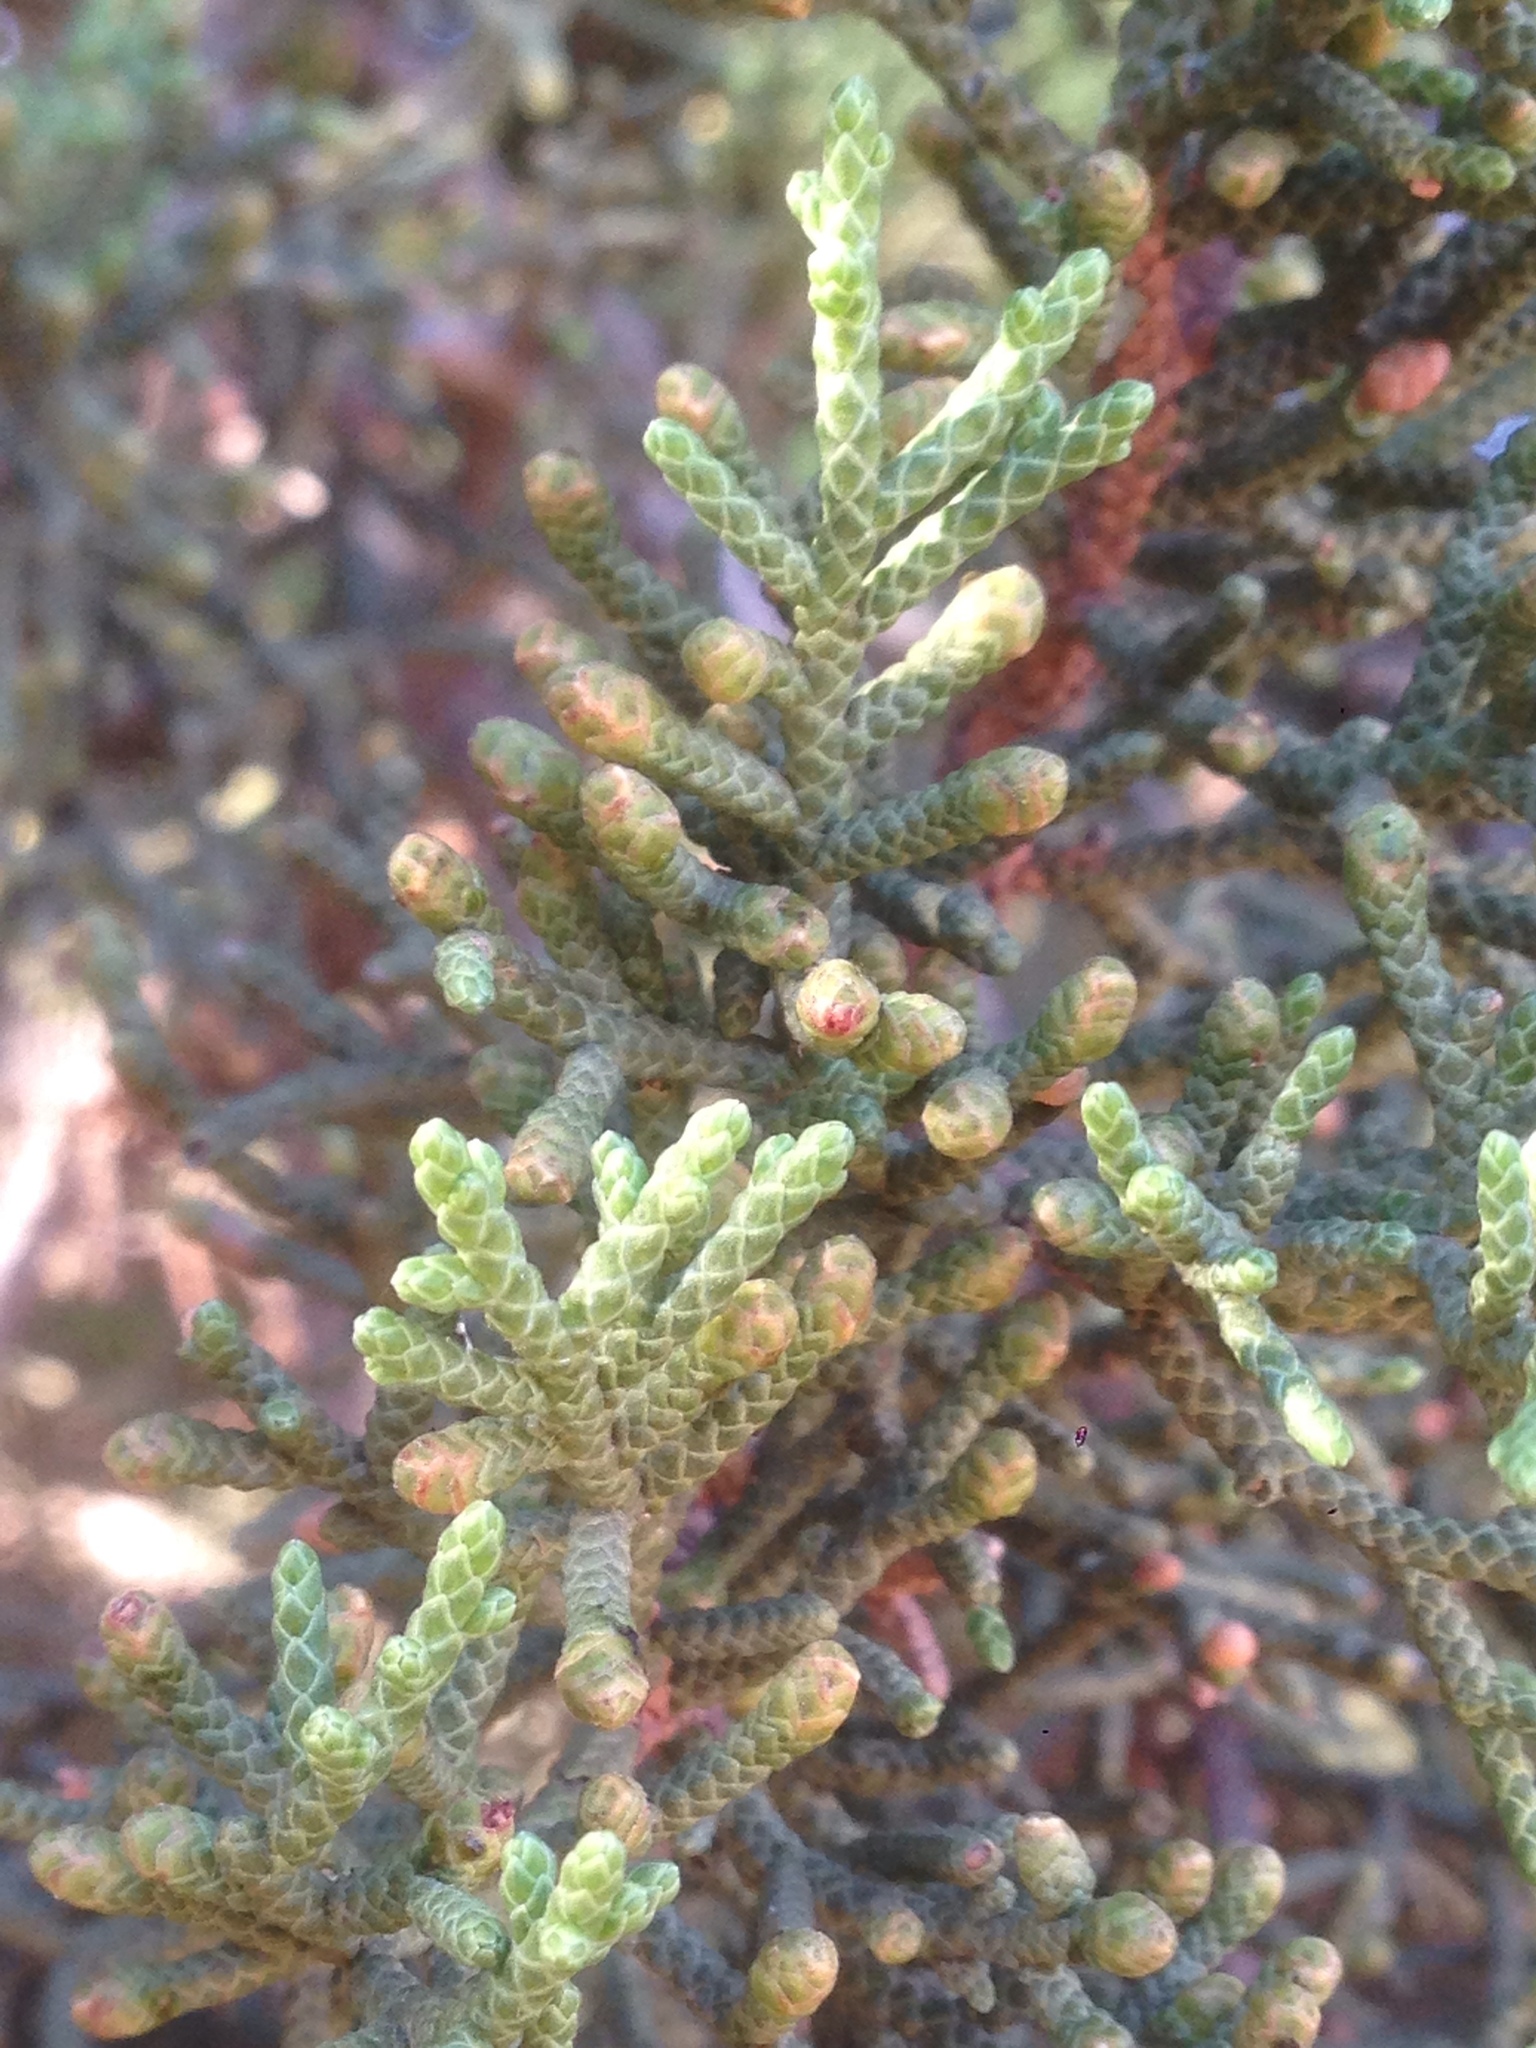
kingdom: Plantae
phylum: Tracheophyta
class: Pinopsida
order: Pinales
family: Cupressaceae
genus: Juniperus
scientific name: Juniperus californica
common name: California juniper
